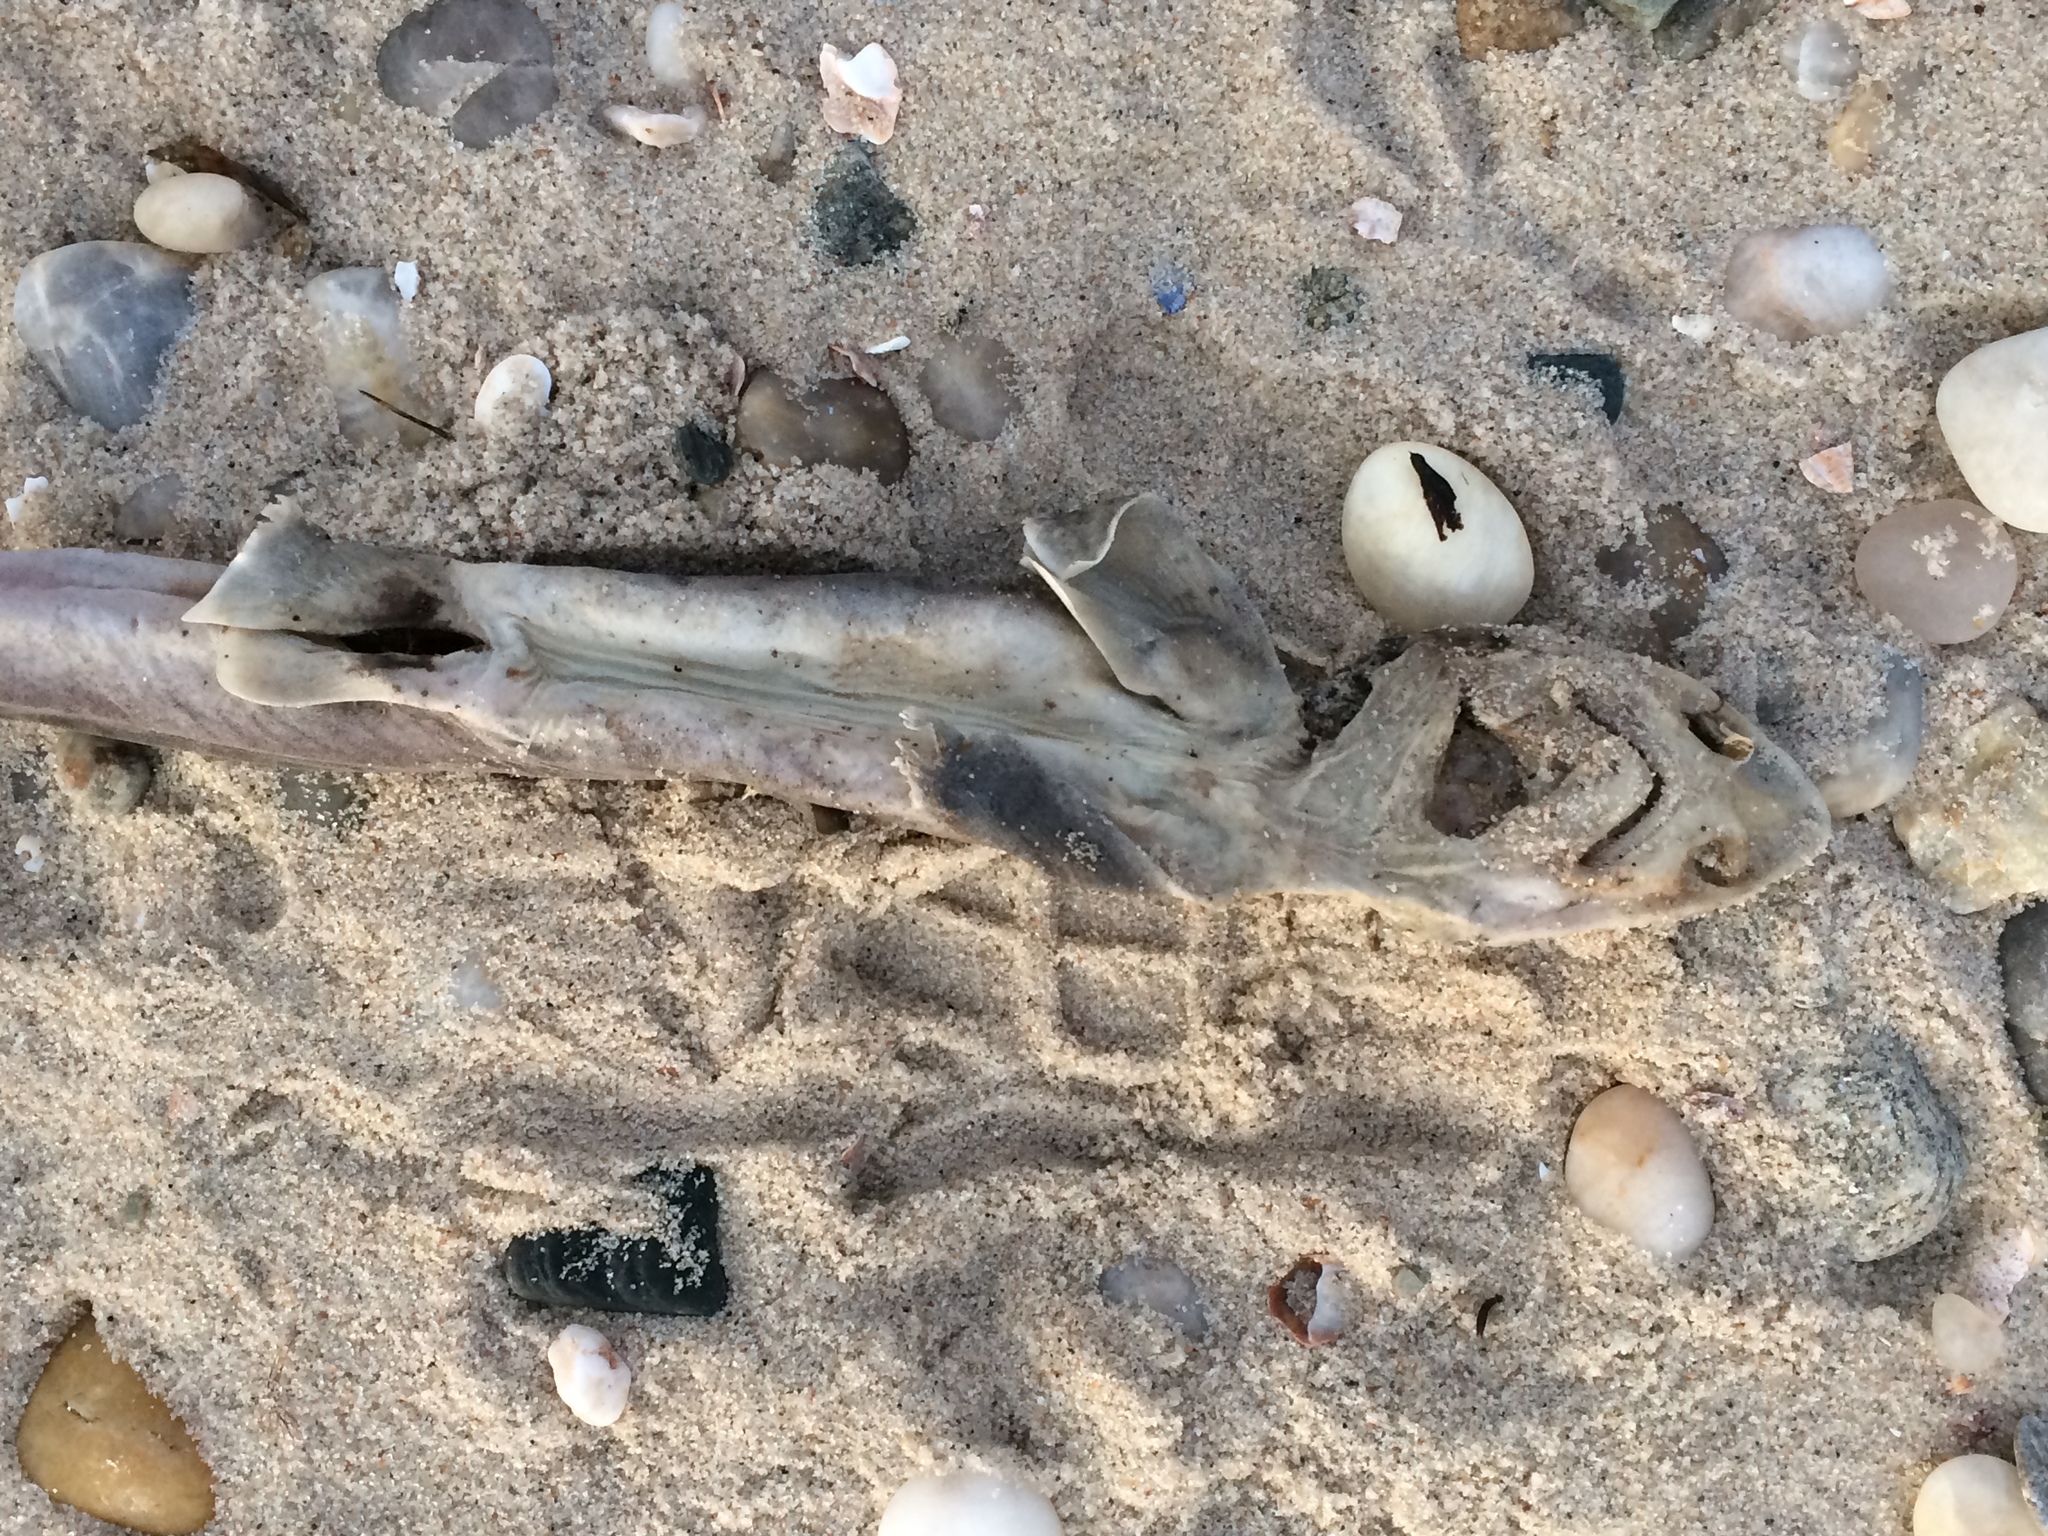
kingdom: Animalia
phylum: Chordata
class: Elasmobranchii
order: Carcharhiniformes
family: Triakidae
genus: Mustelus
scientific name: Mustelus canis
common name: Smooth dogfish
